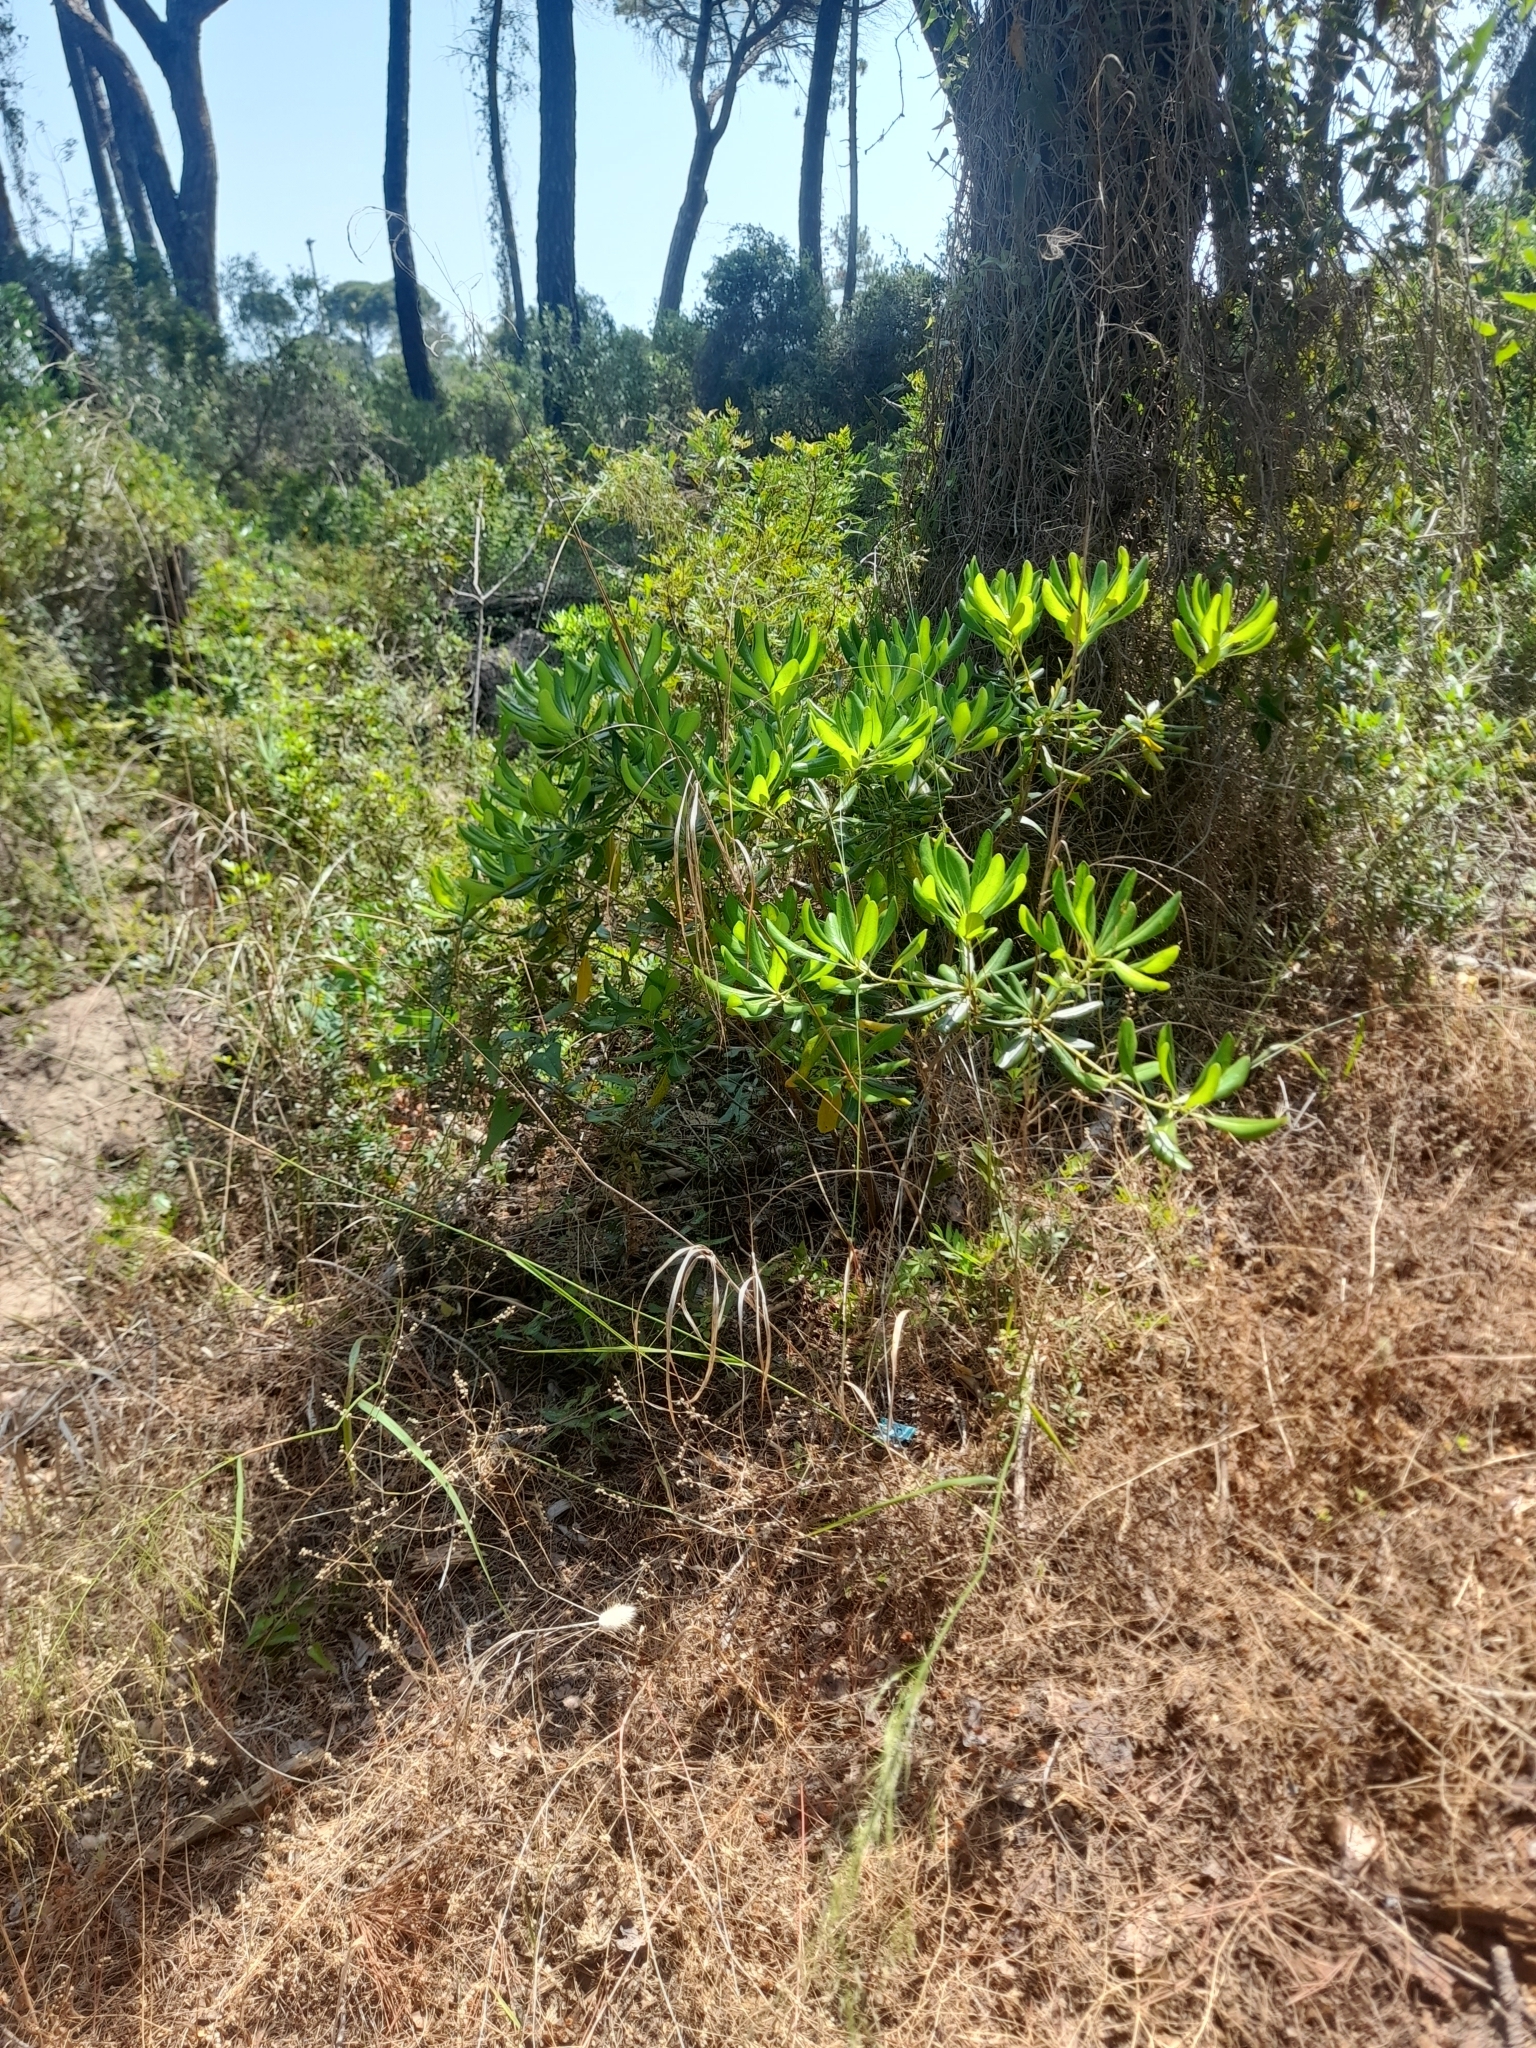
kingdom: Plantae
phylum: Tracheophyta
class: Magnoliopsida
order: Apiales
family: Pittosporaceae
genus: Pittosporum
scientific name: Pittosporum tobira
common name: Japanese cheesewood
